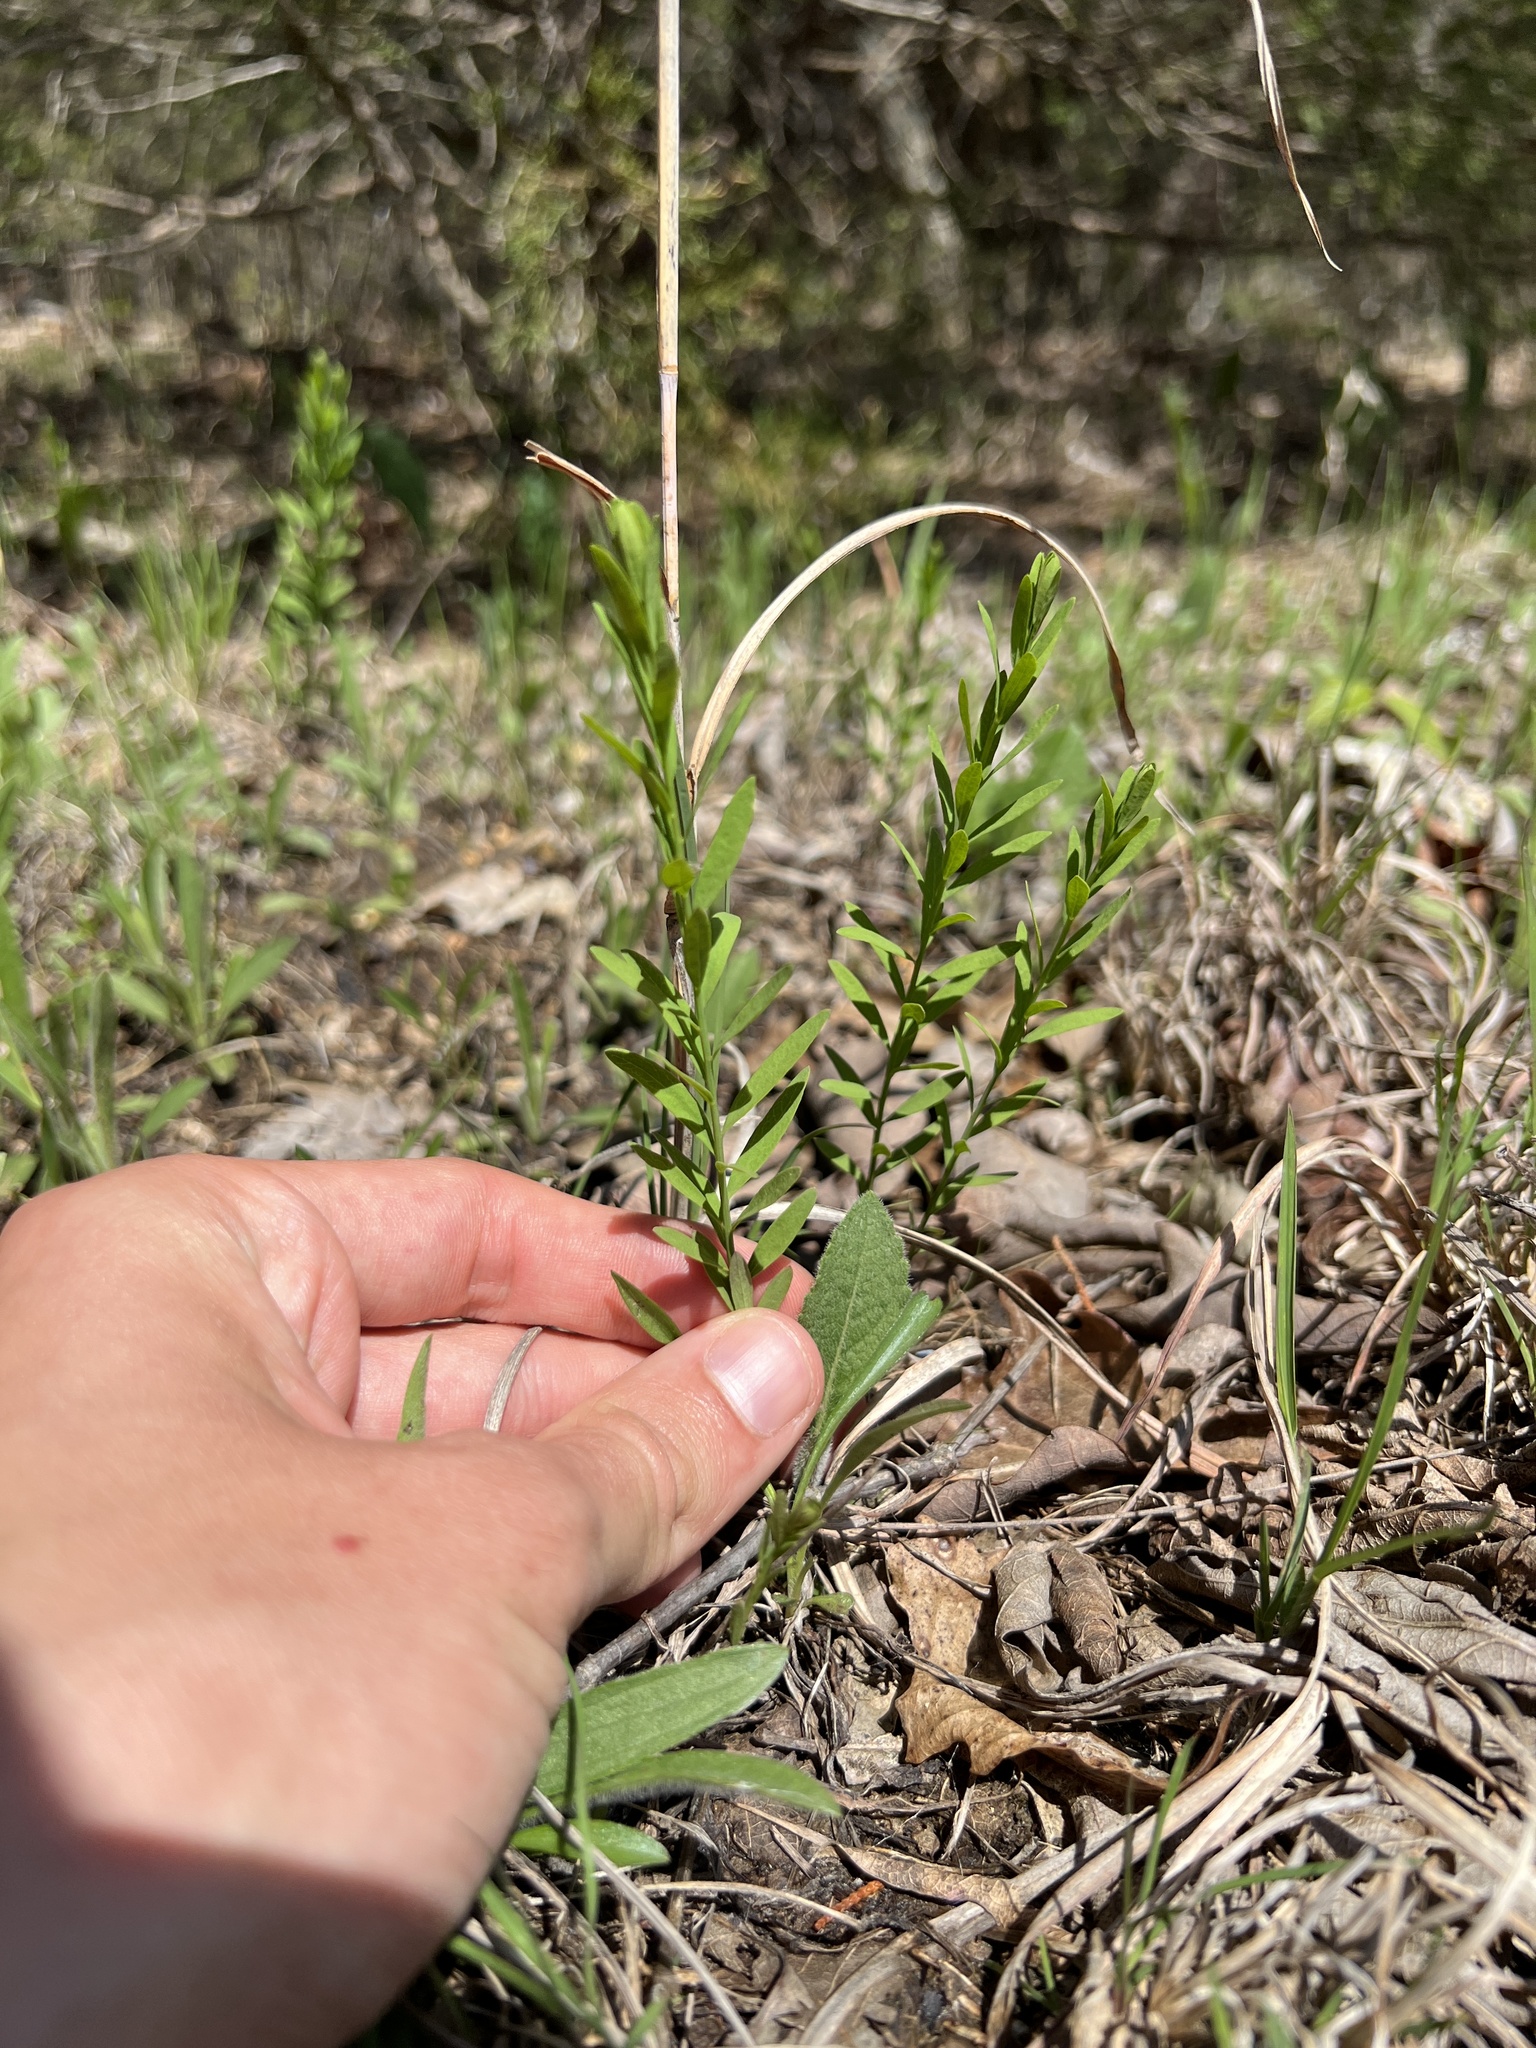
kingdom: Plantae
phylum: Tracheophyta
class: Magnoliopsida
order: Santalales
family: Comandraceae
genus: Comandra
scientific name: Comandra umbellata
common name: Bastard toadflax
